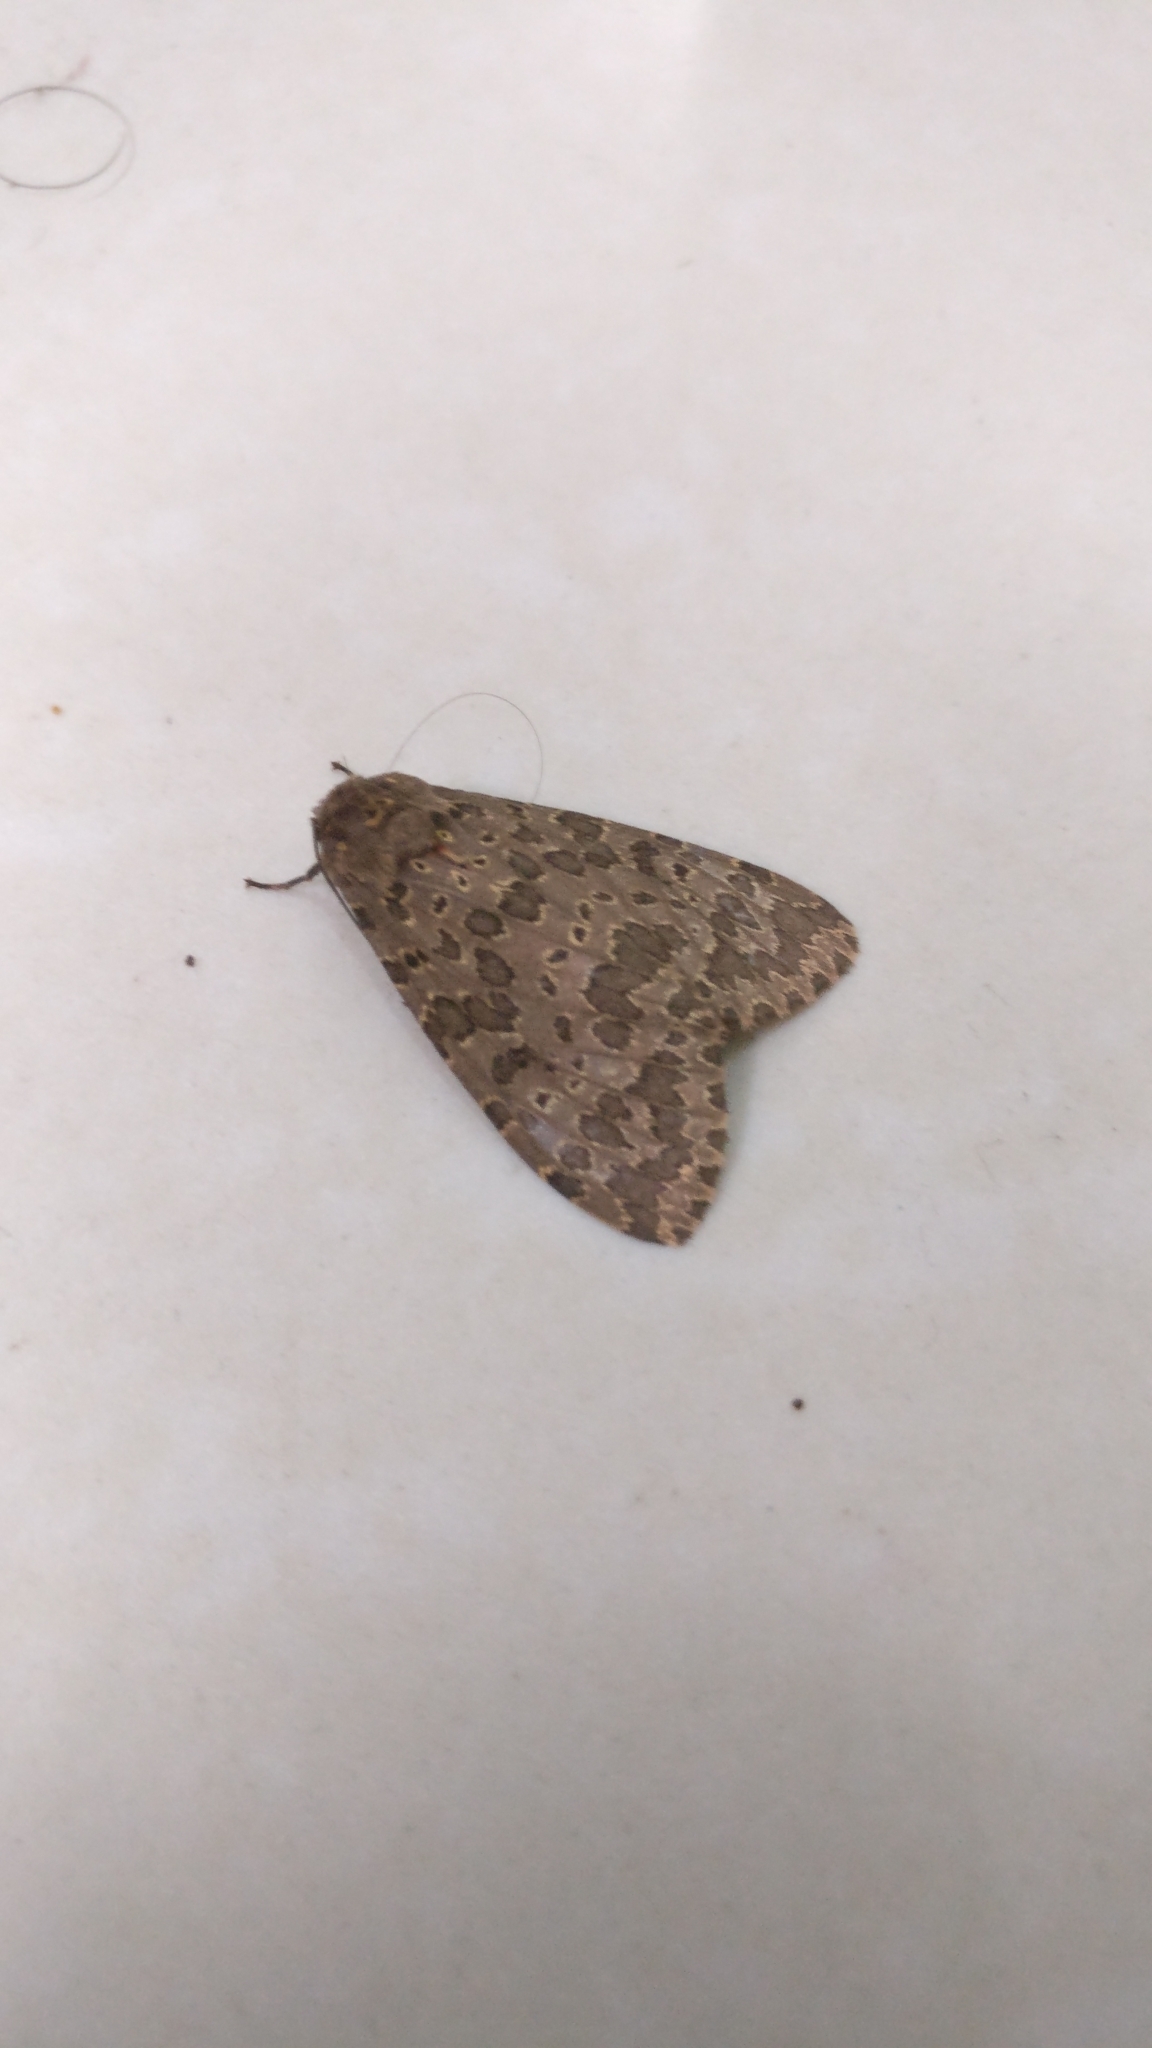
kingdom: Animalia
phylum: Arthropoda
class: Insecta
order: Lepidoptera
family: Erebidae
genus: Olepa
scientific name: Olepa ocellifera
